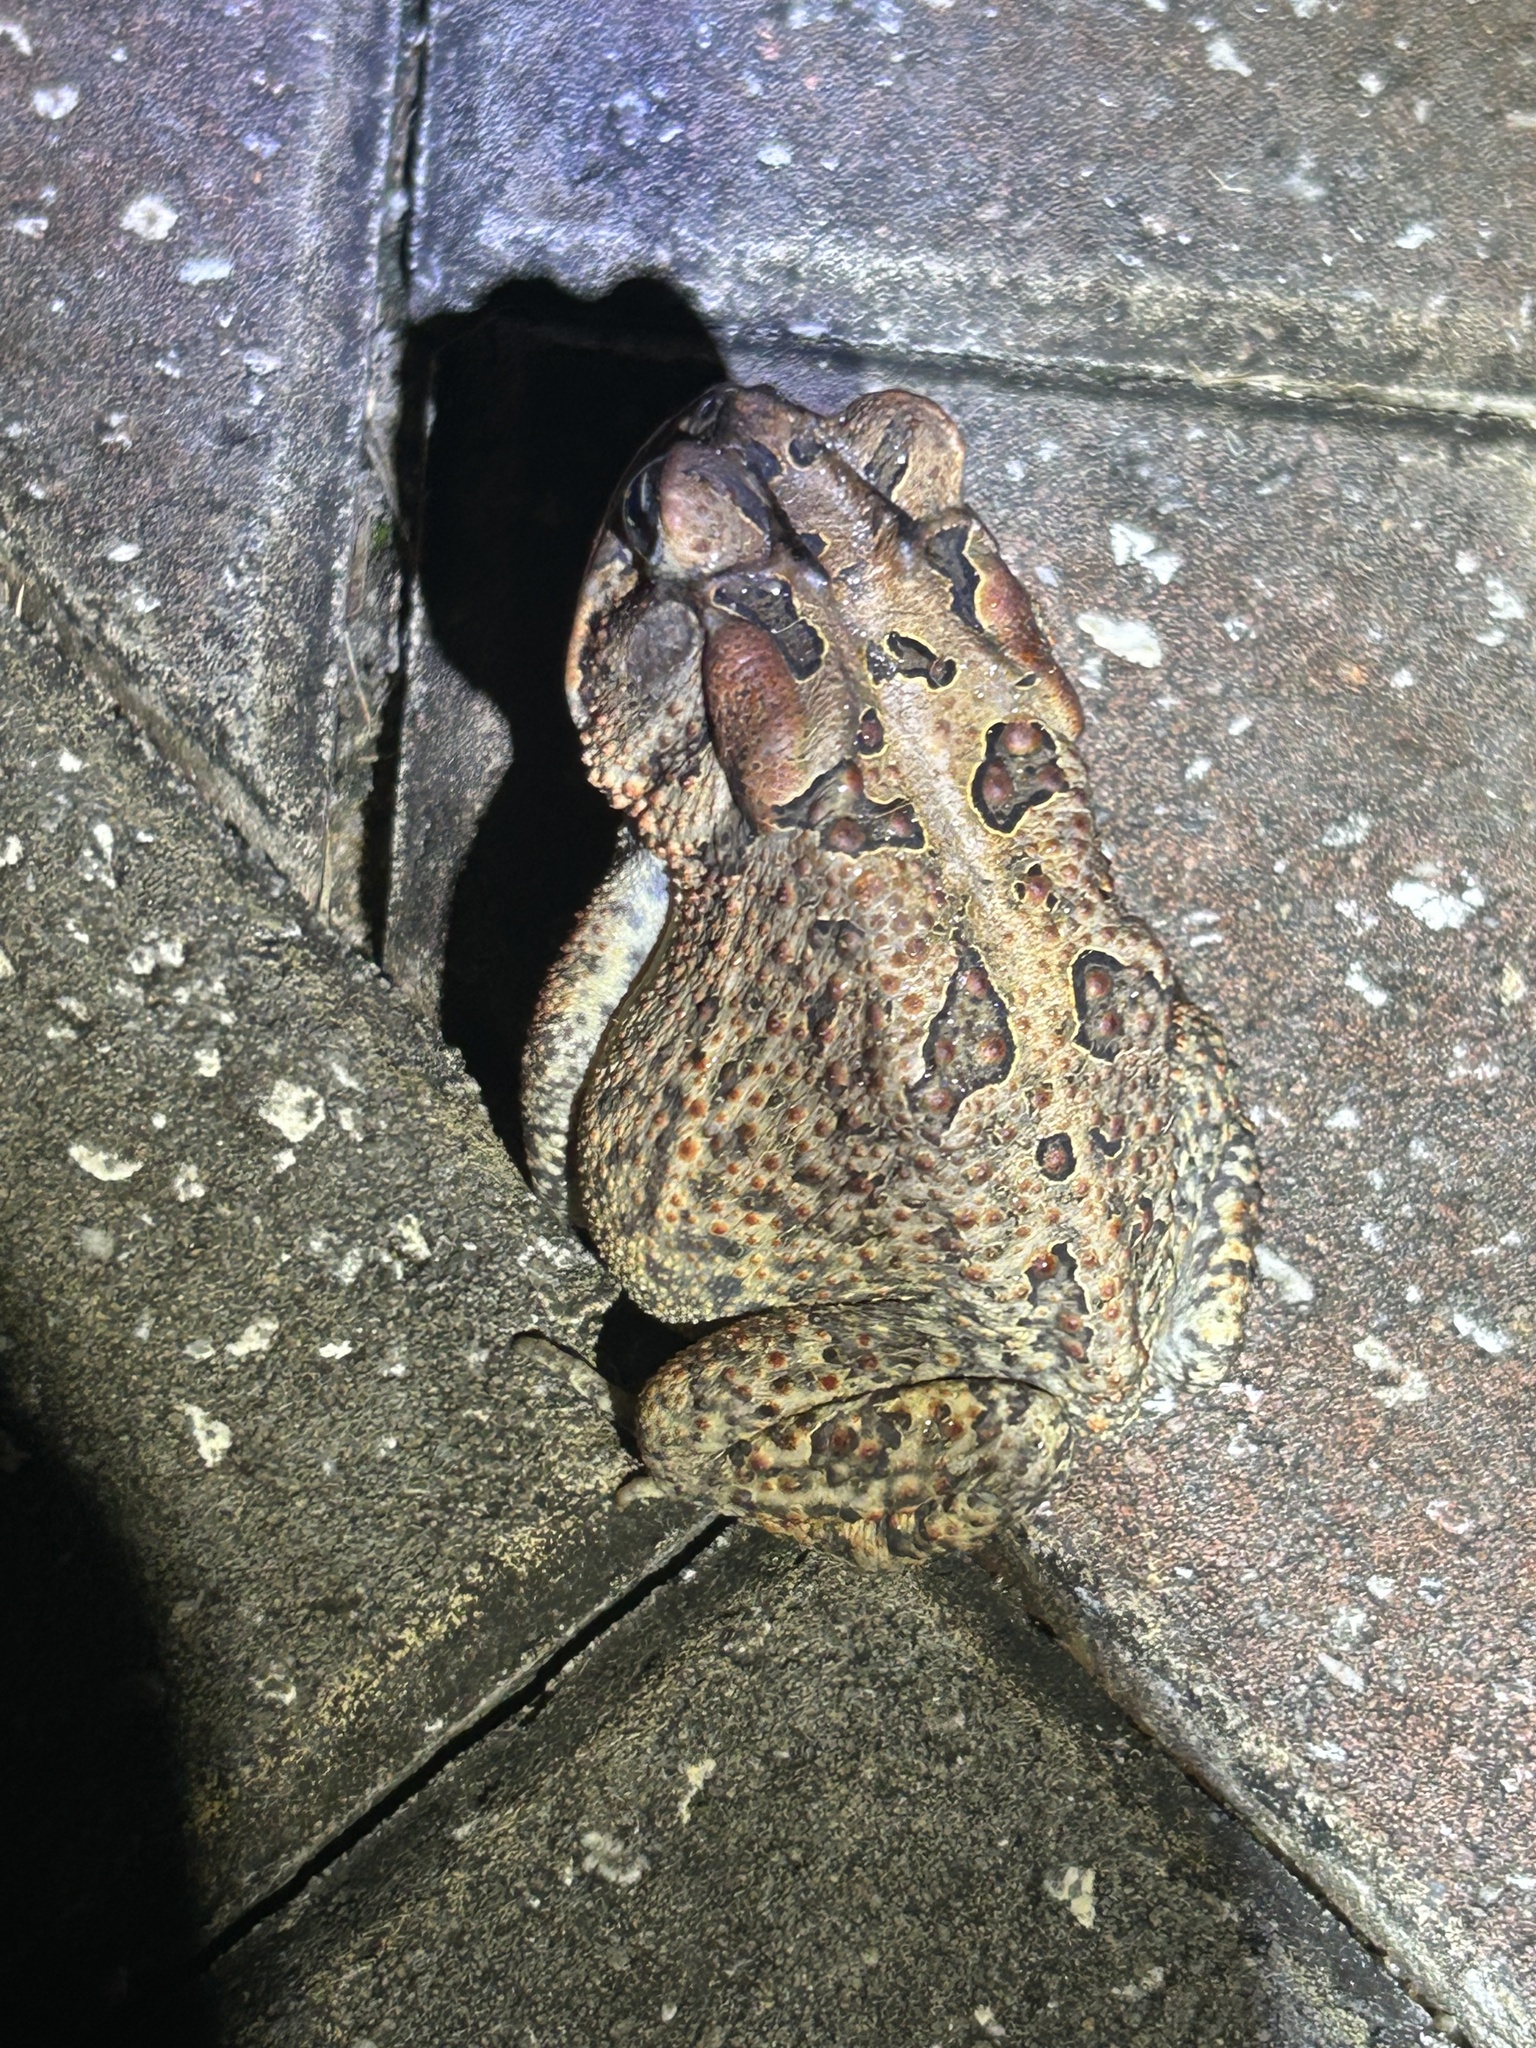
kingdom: Animalia
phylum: Chordata
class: Amphibia
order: Anura
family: Bufonidae
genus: Anaxyrus
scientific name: Anaxyrus terrestris
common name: Southern toad
